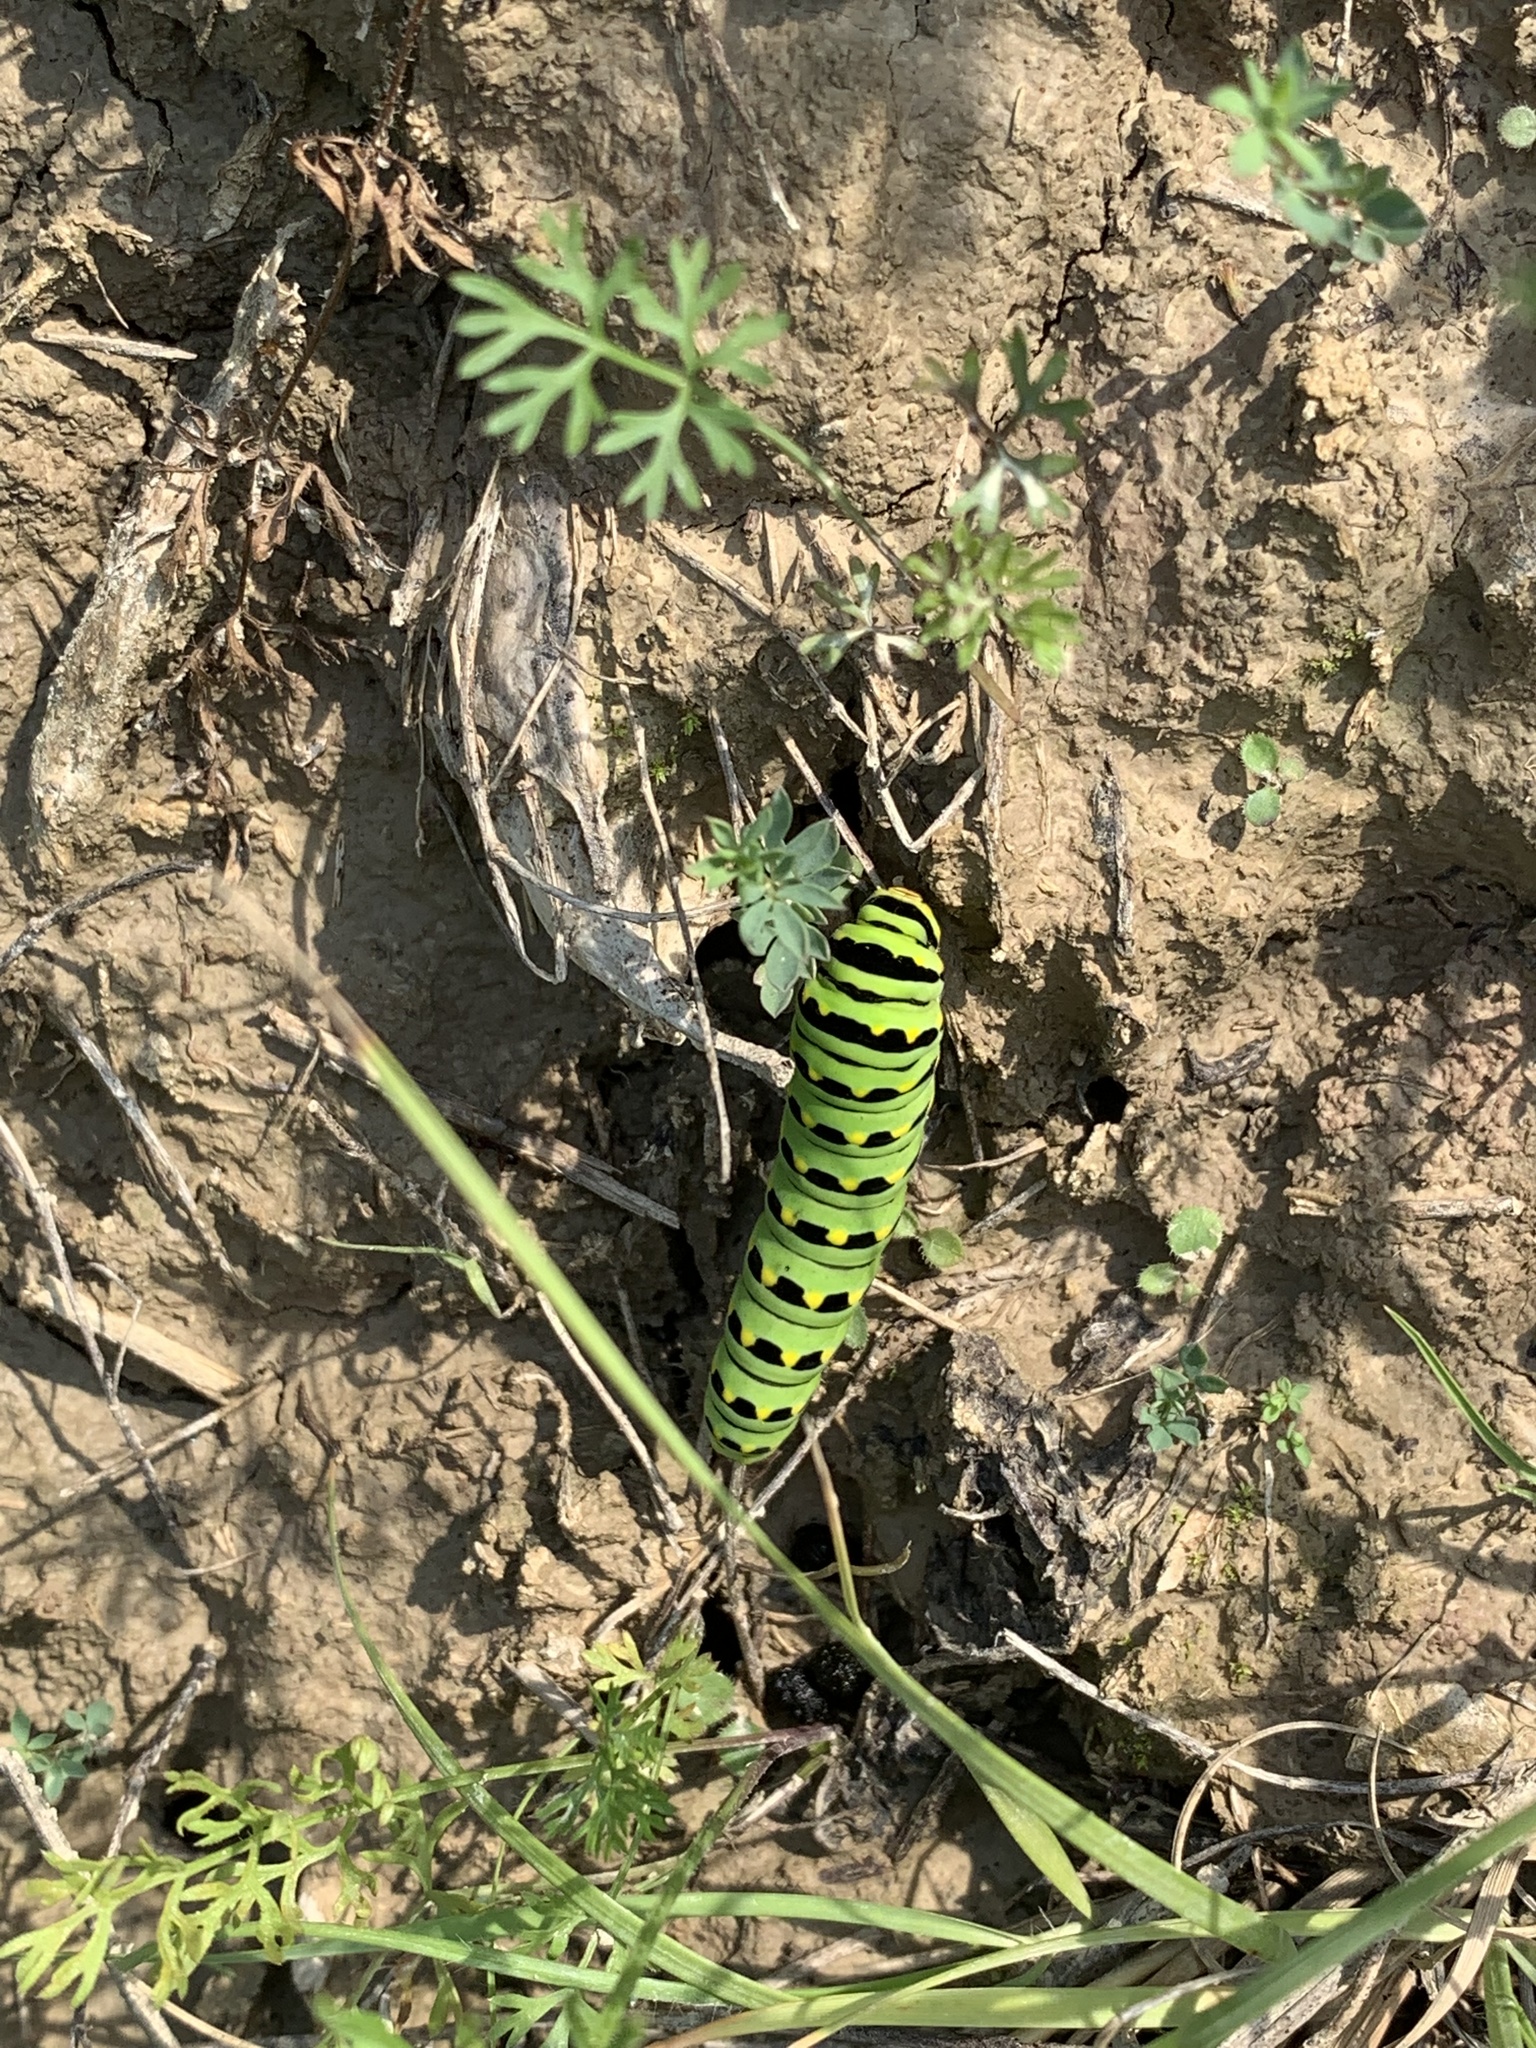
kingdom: Animalia
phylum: Arthropoda
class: Insecta
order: Lepidoptera
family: Papilionidae
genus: Papilio
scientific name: Papilio polyxenes
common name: Black swallowtail
